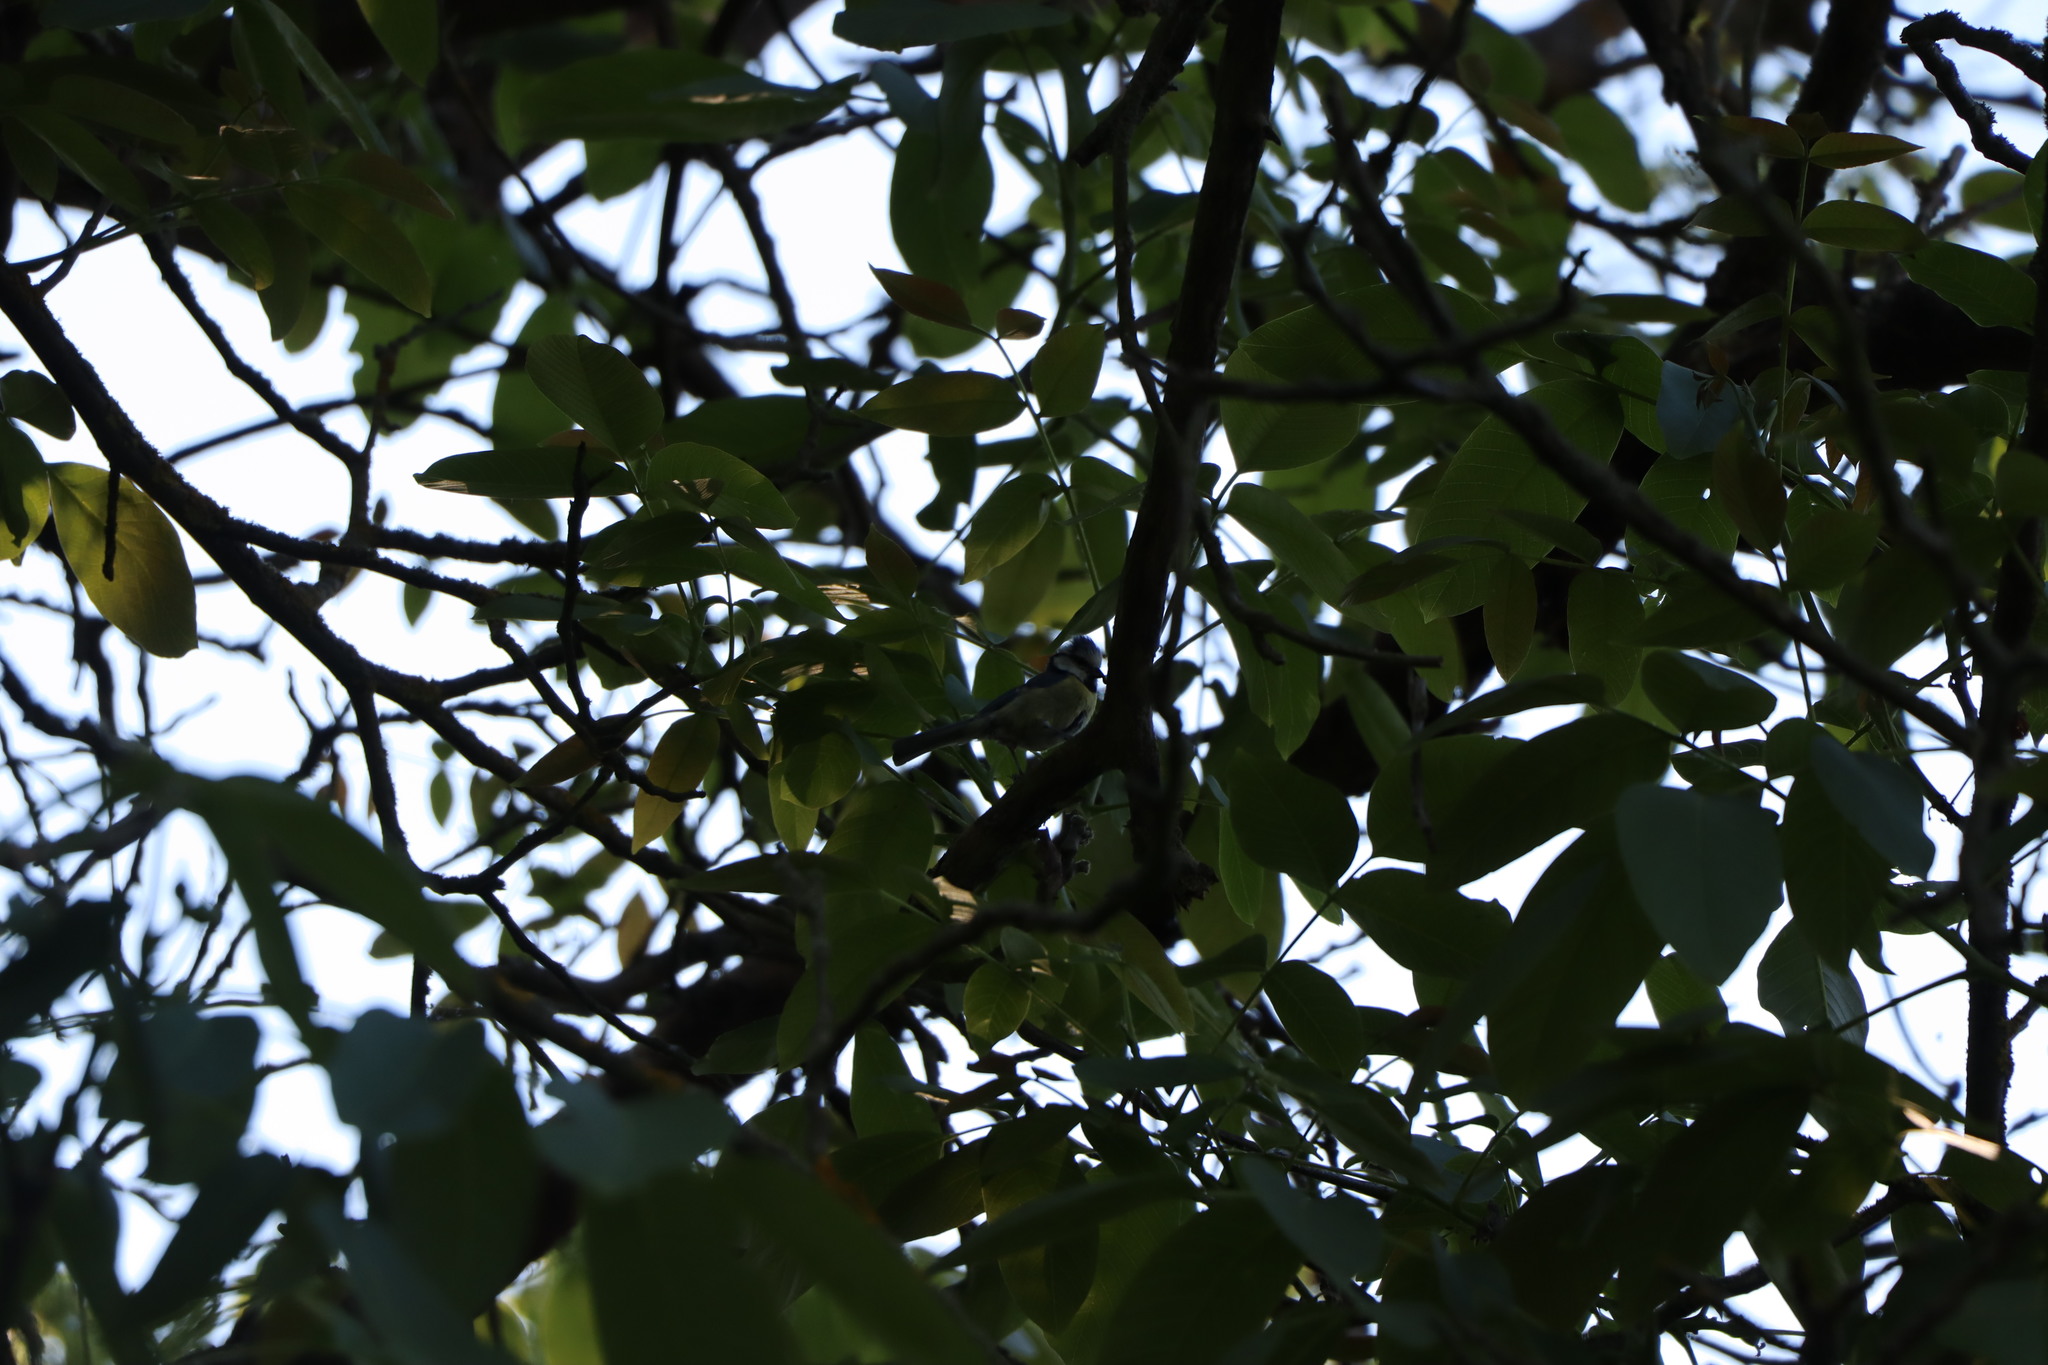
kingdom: Animalia
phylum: Chordata
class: Aves
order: Passeriformes
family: Paridae
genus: Cyanistes
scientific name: Cyanistes caeruleus
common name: Eurasian blue tit
